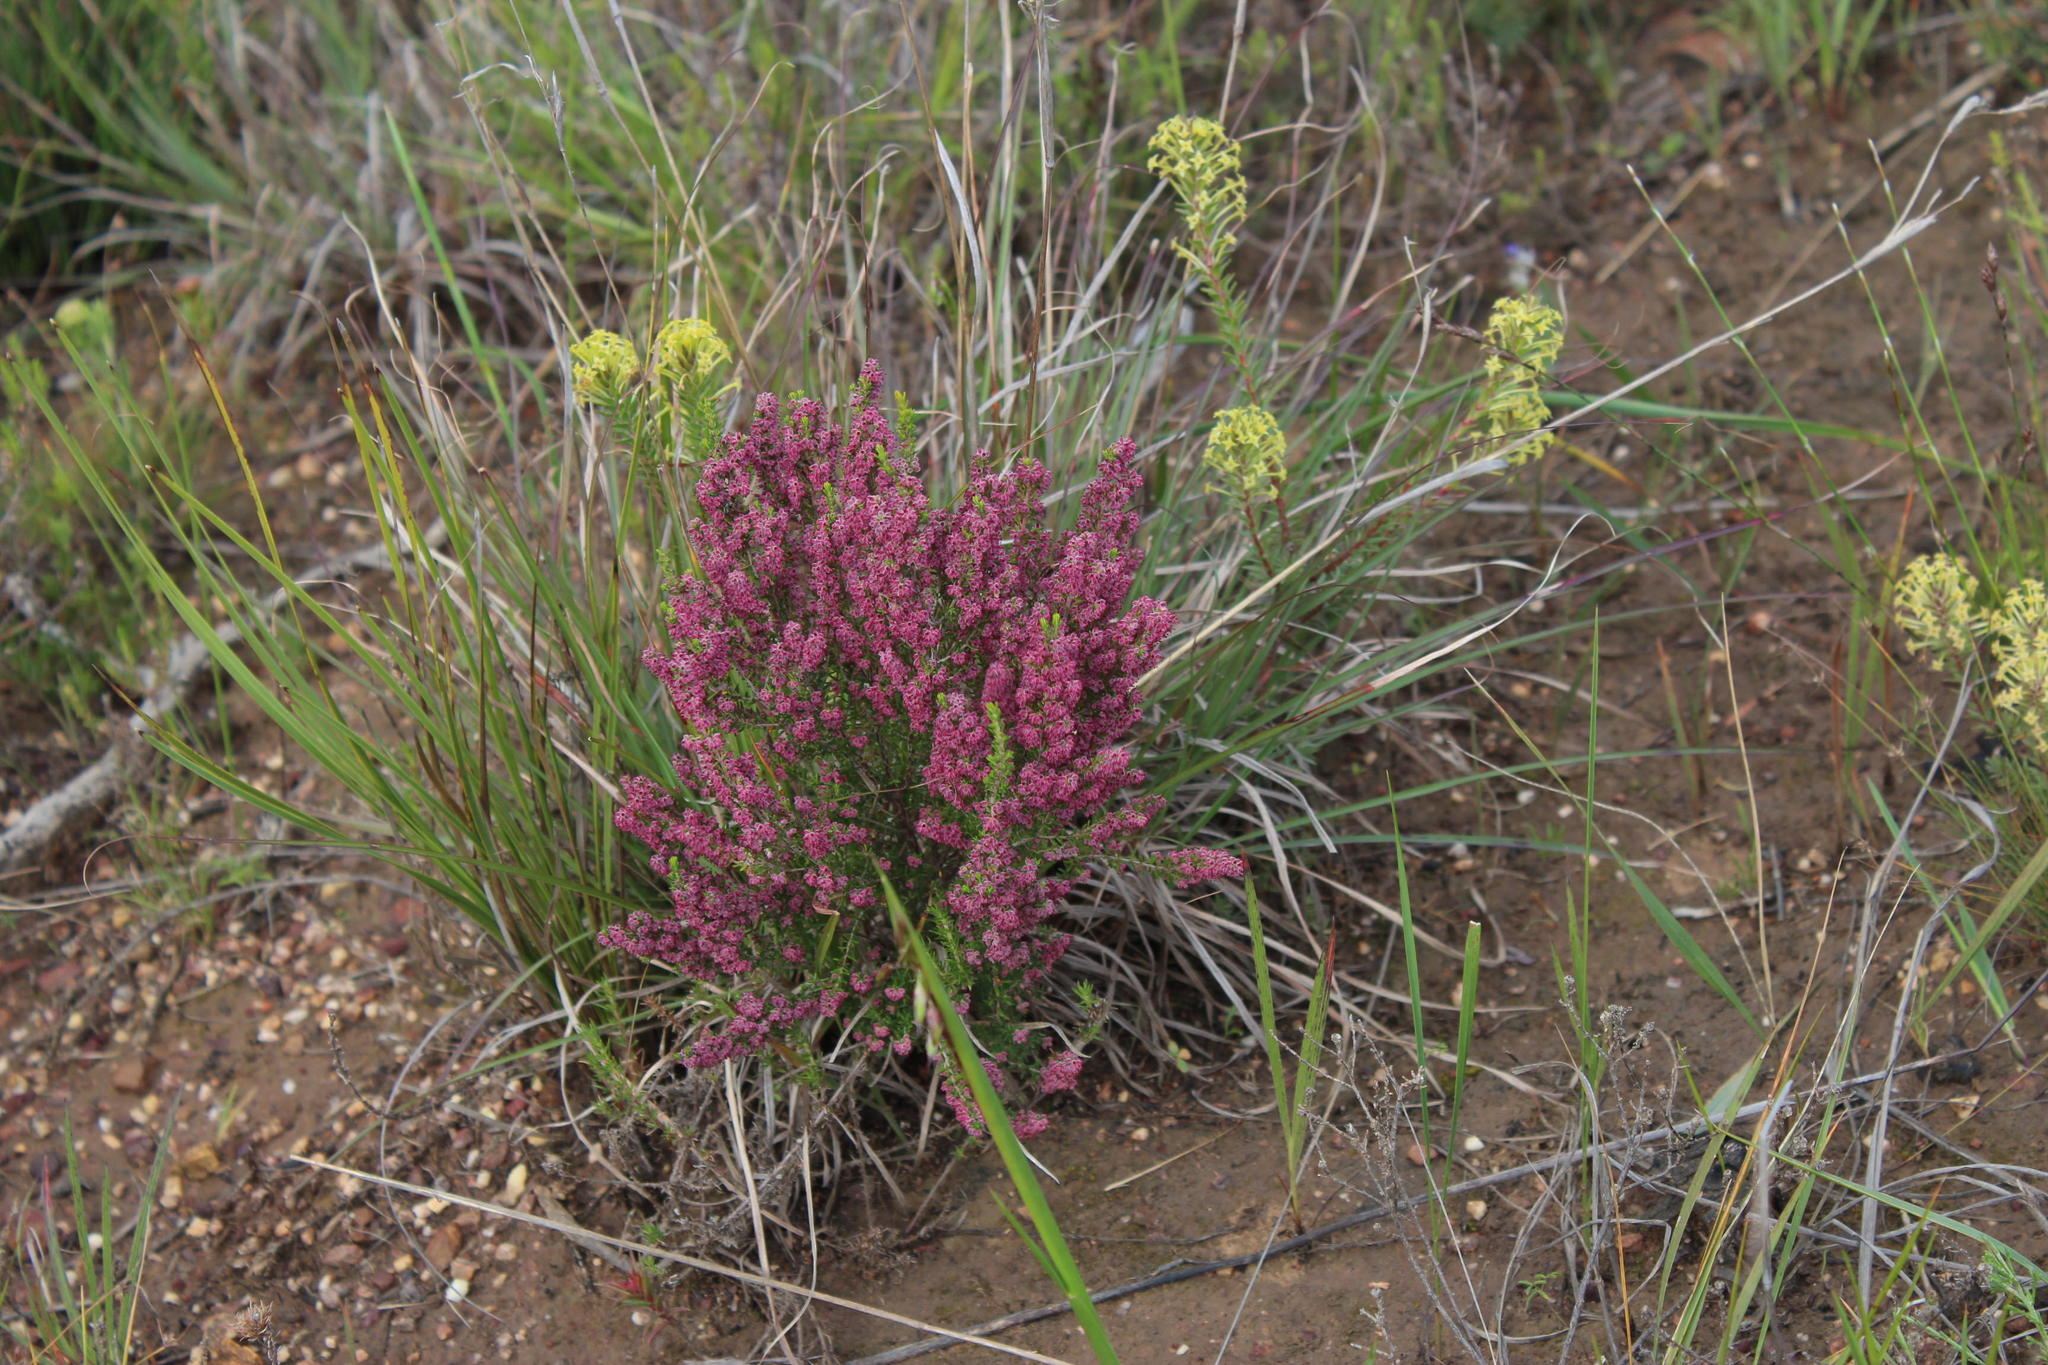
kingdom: Plantae
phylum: Tracheophyta
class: Magnoliopsida
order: Ericales
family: Ericaceae
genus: Erica
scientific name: Erica puberuliflora
